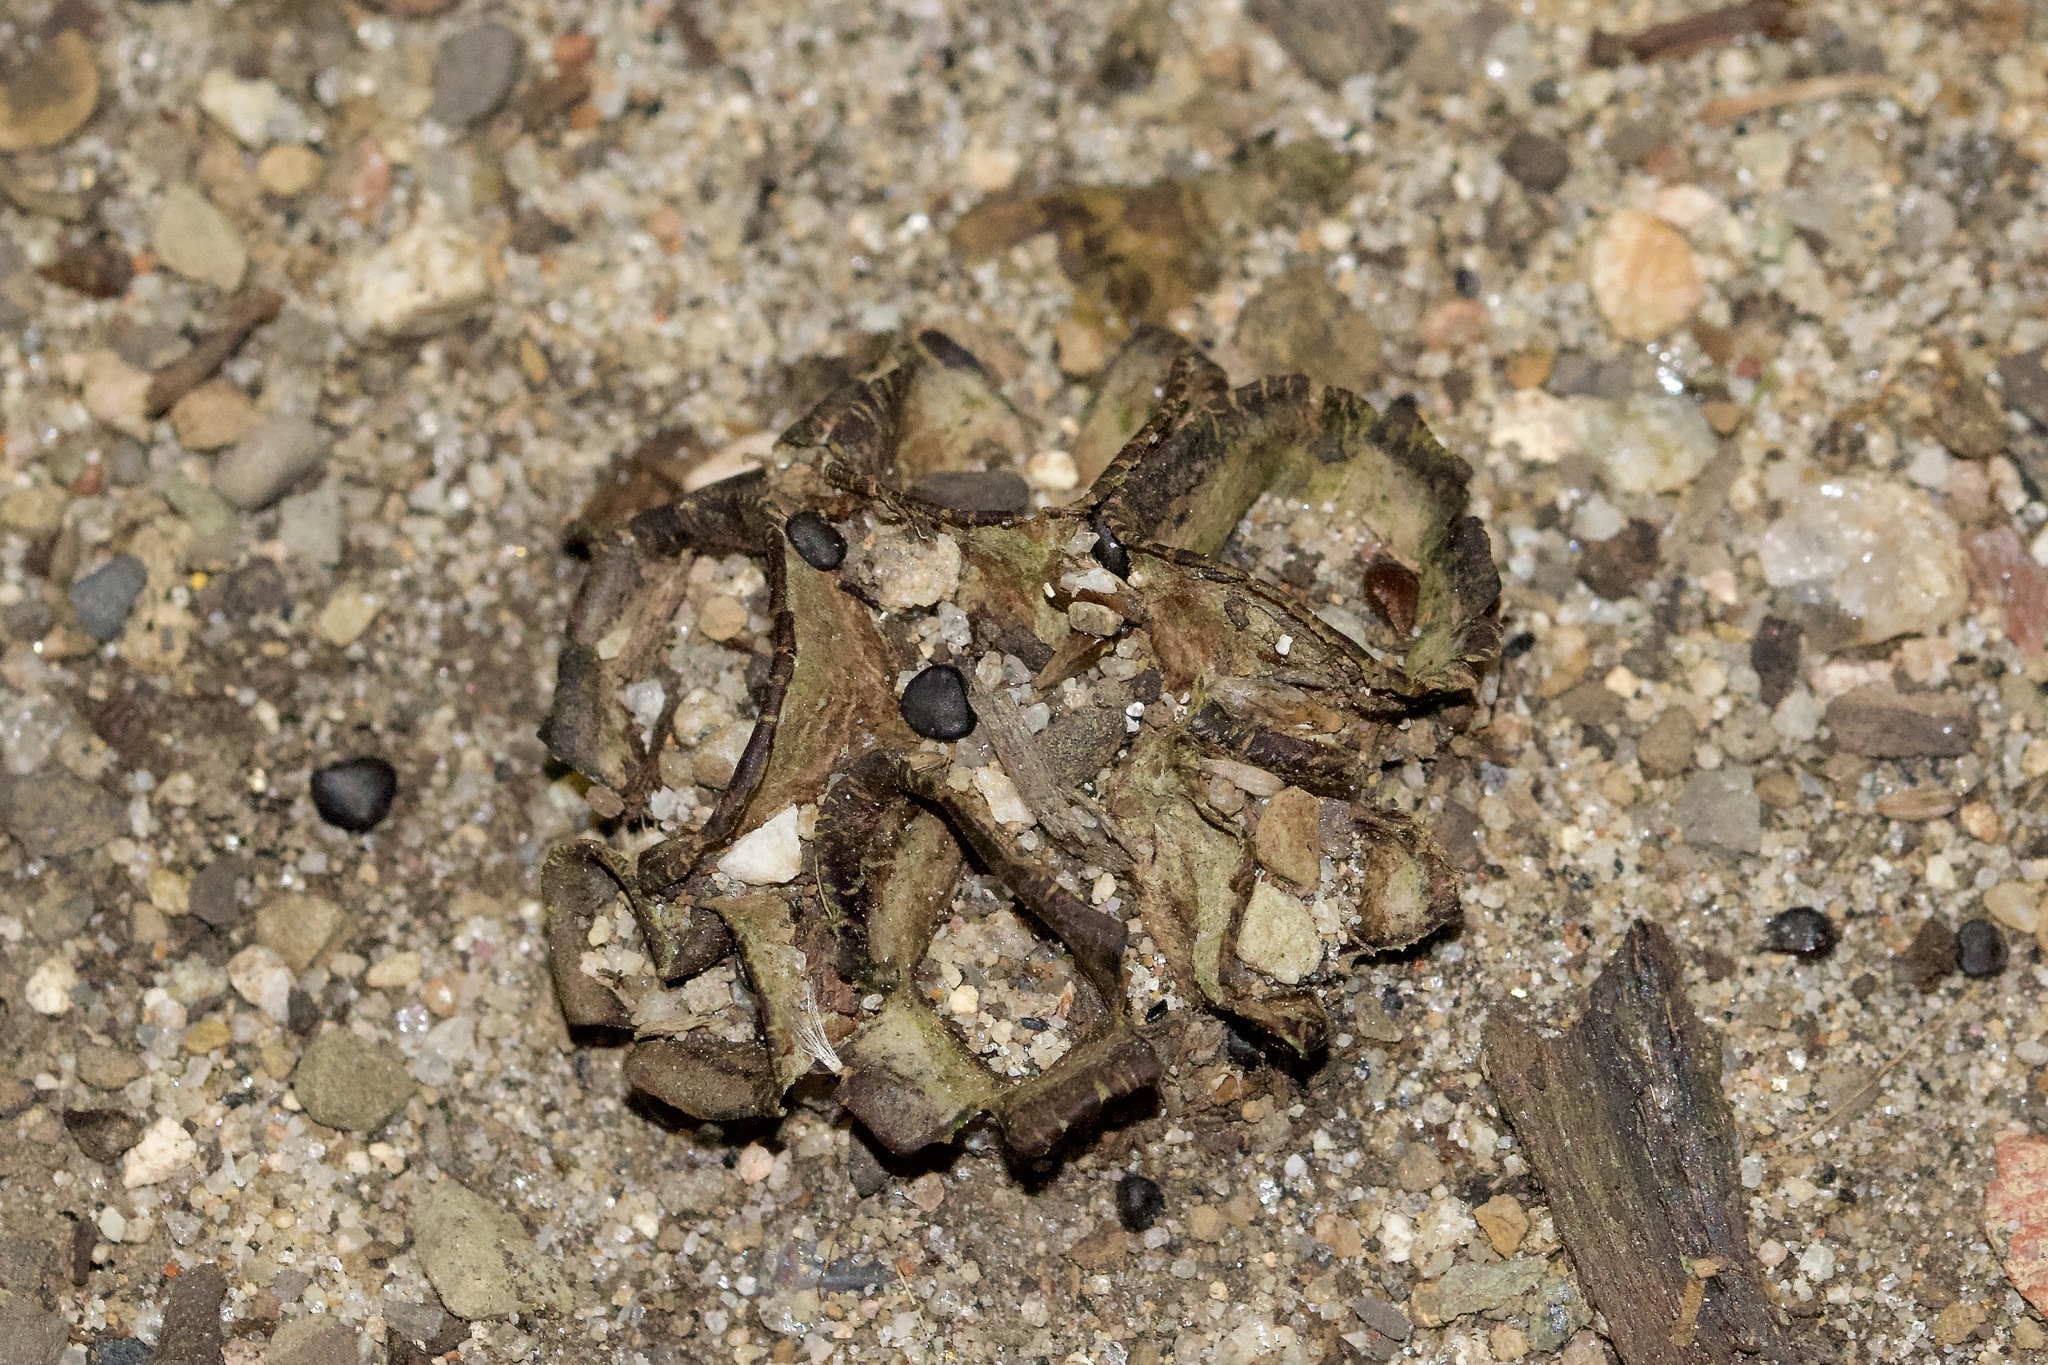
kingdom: Fungi
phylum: Basidiomycota
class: Agaricomycetes
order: Agaricales
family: Agaricaceae
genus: Cyathus
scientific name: Cyathus stercoreus
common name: Dung bird's nest
